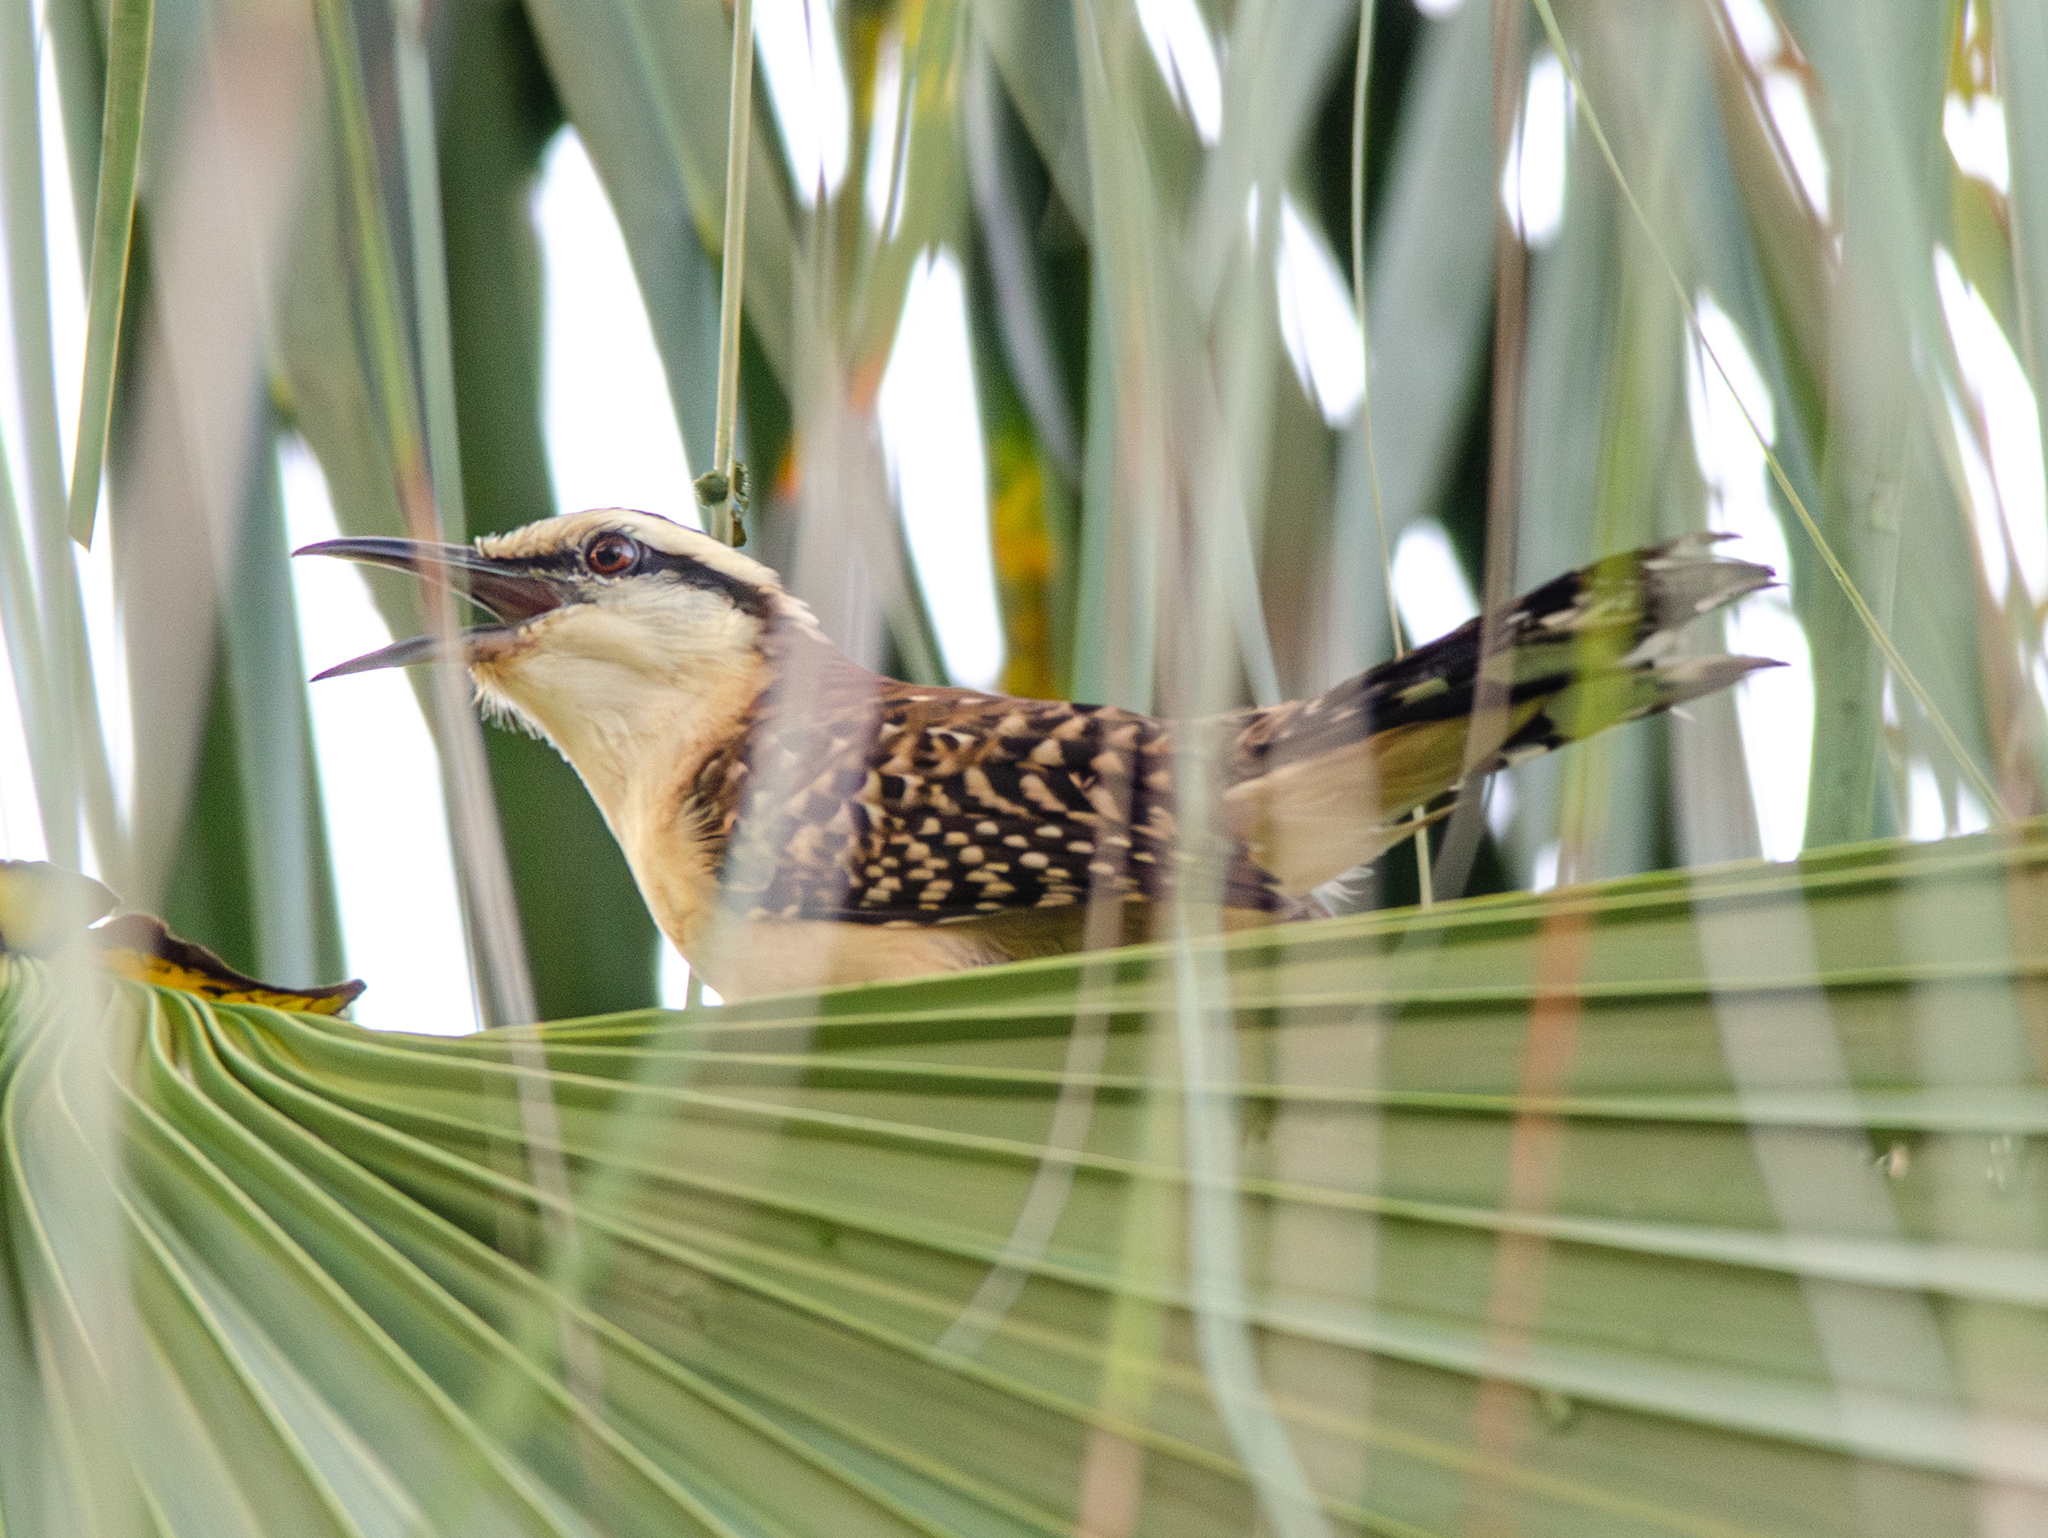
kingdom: Animalia
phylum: Chordata
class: Aves
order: Passeriformes
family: Troglodytidae
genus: Campylorhynchus
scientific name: Campylorhynchus rufinucha
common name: Rufous-naped wren
